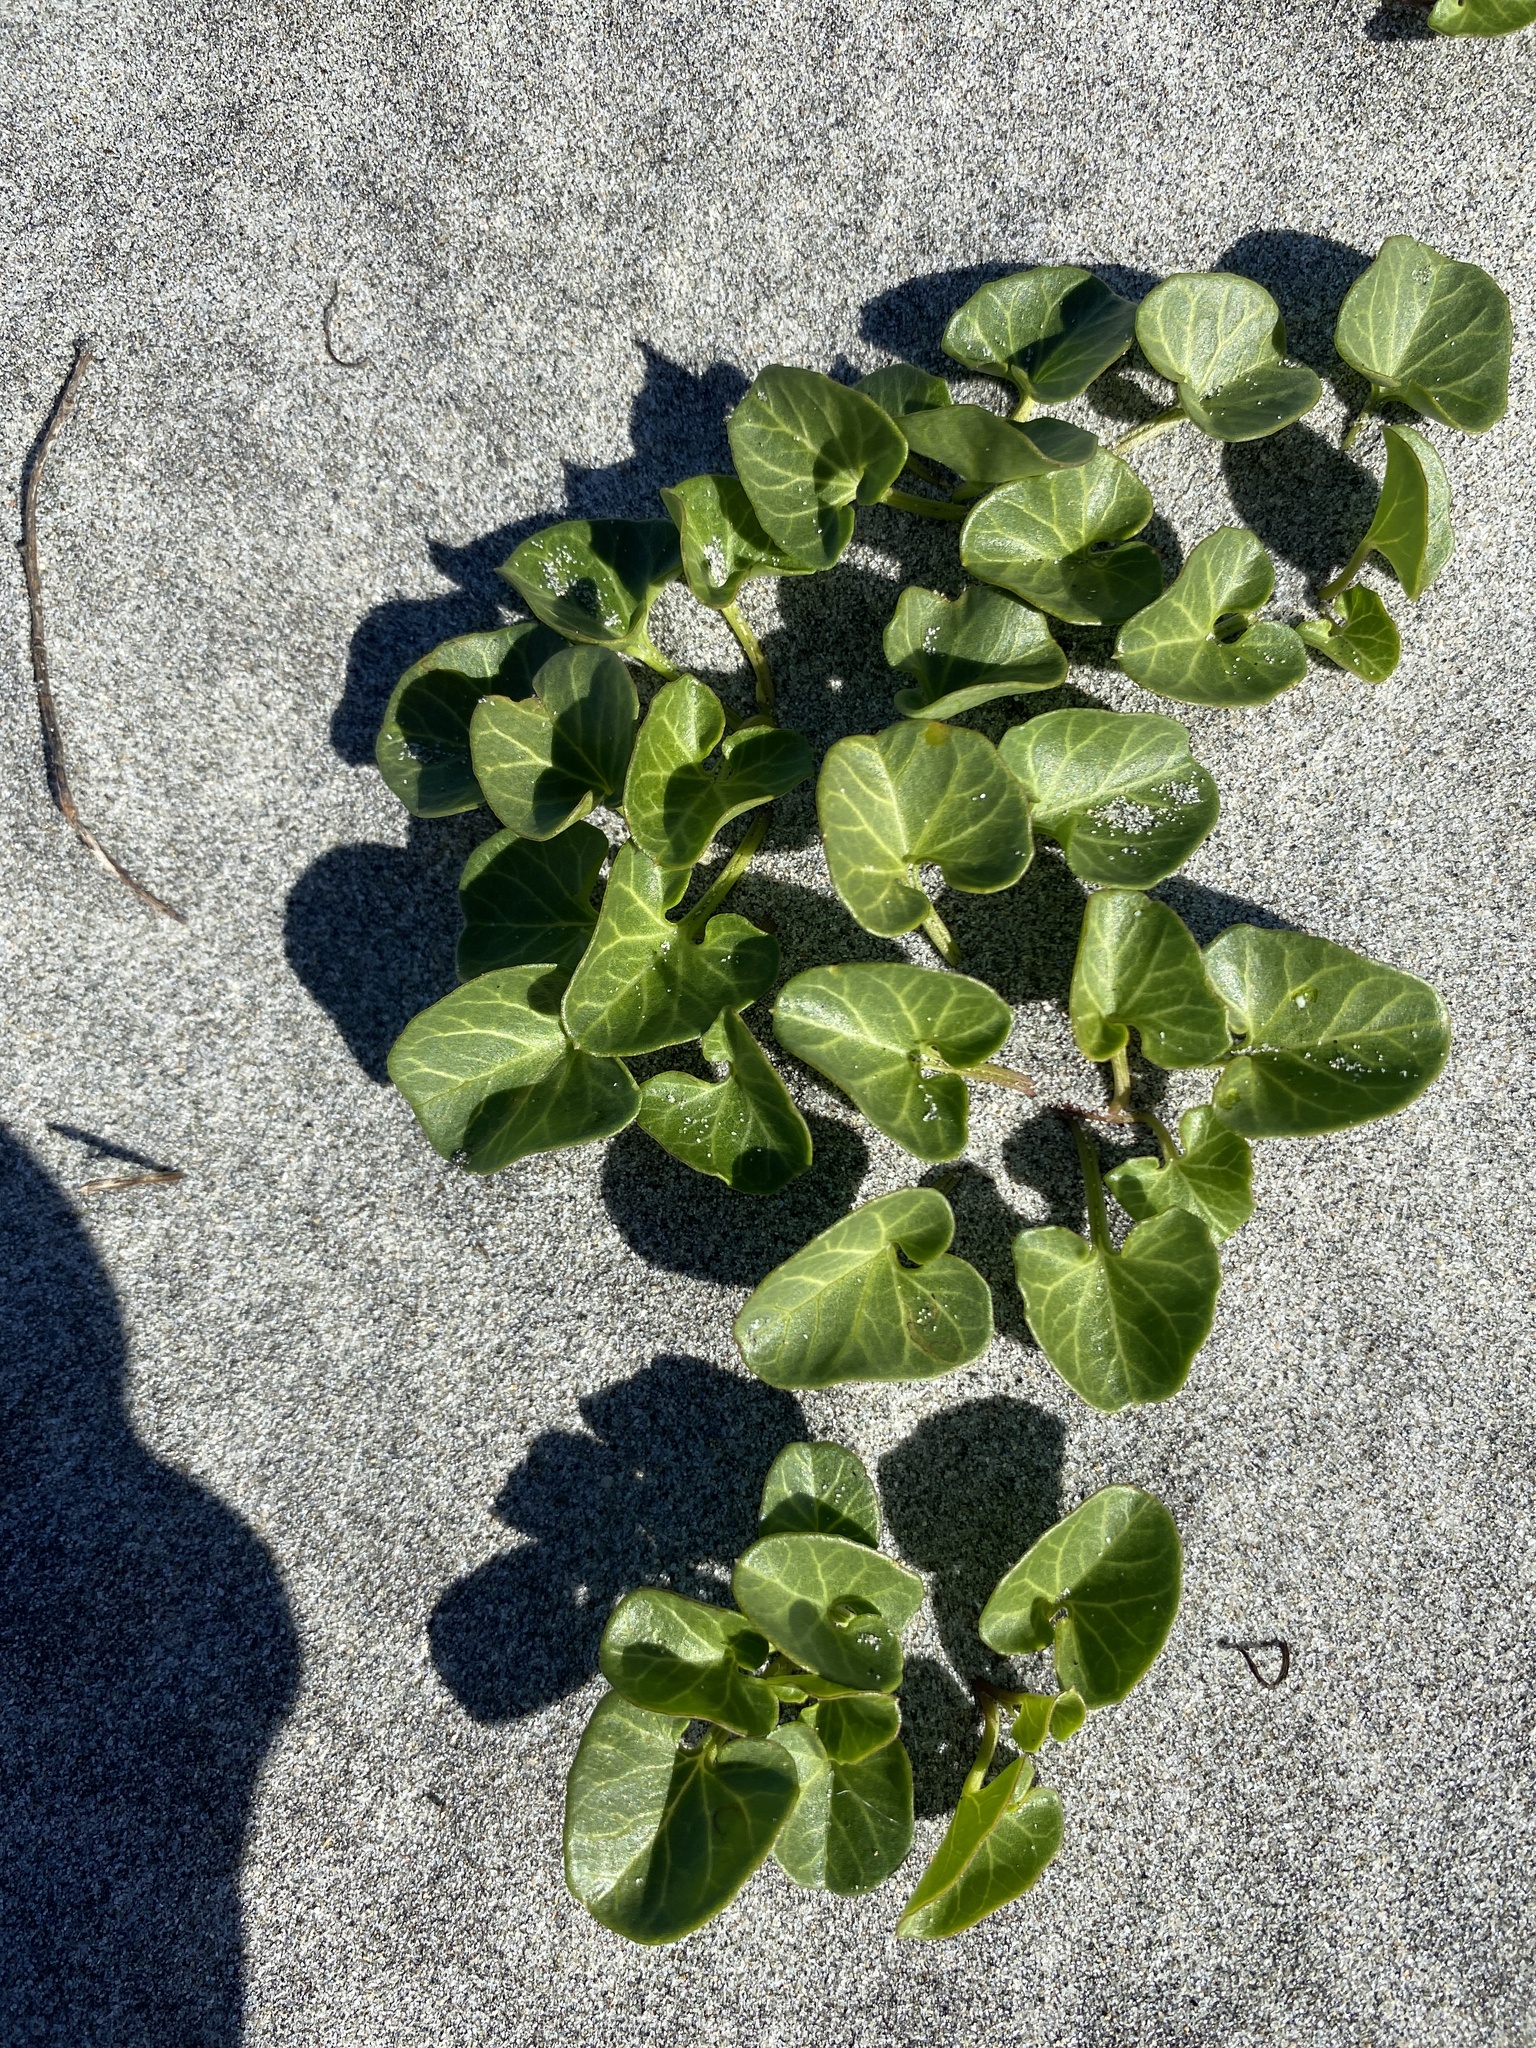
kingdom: Plantae
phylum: Tracheophyta
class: Magnoliopsida
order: Solanales
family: Convolvulaceae
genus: Calystegia
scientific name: Calystegia soldanella
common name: Sea bindweed
